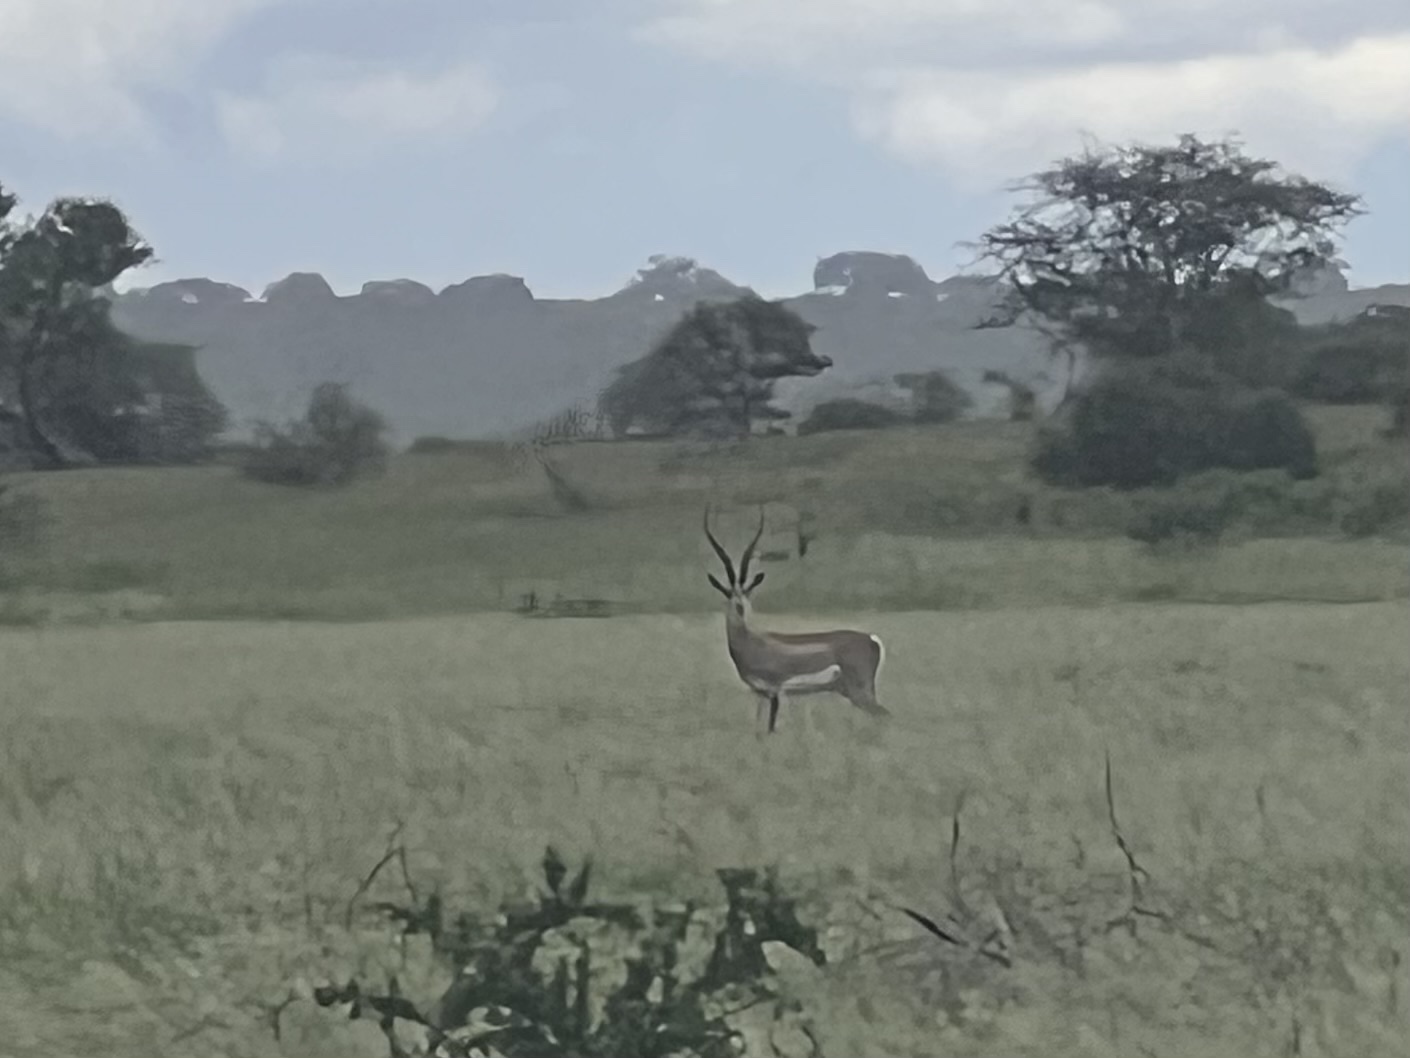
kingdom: Animalia
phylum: Chordata
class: Mammalia
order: Artiodactyla
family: Bovidae
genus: Nanger
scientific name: Nanger granti
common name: Grant's gazelle
